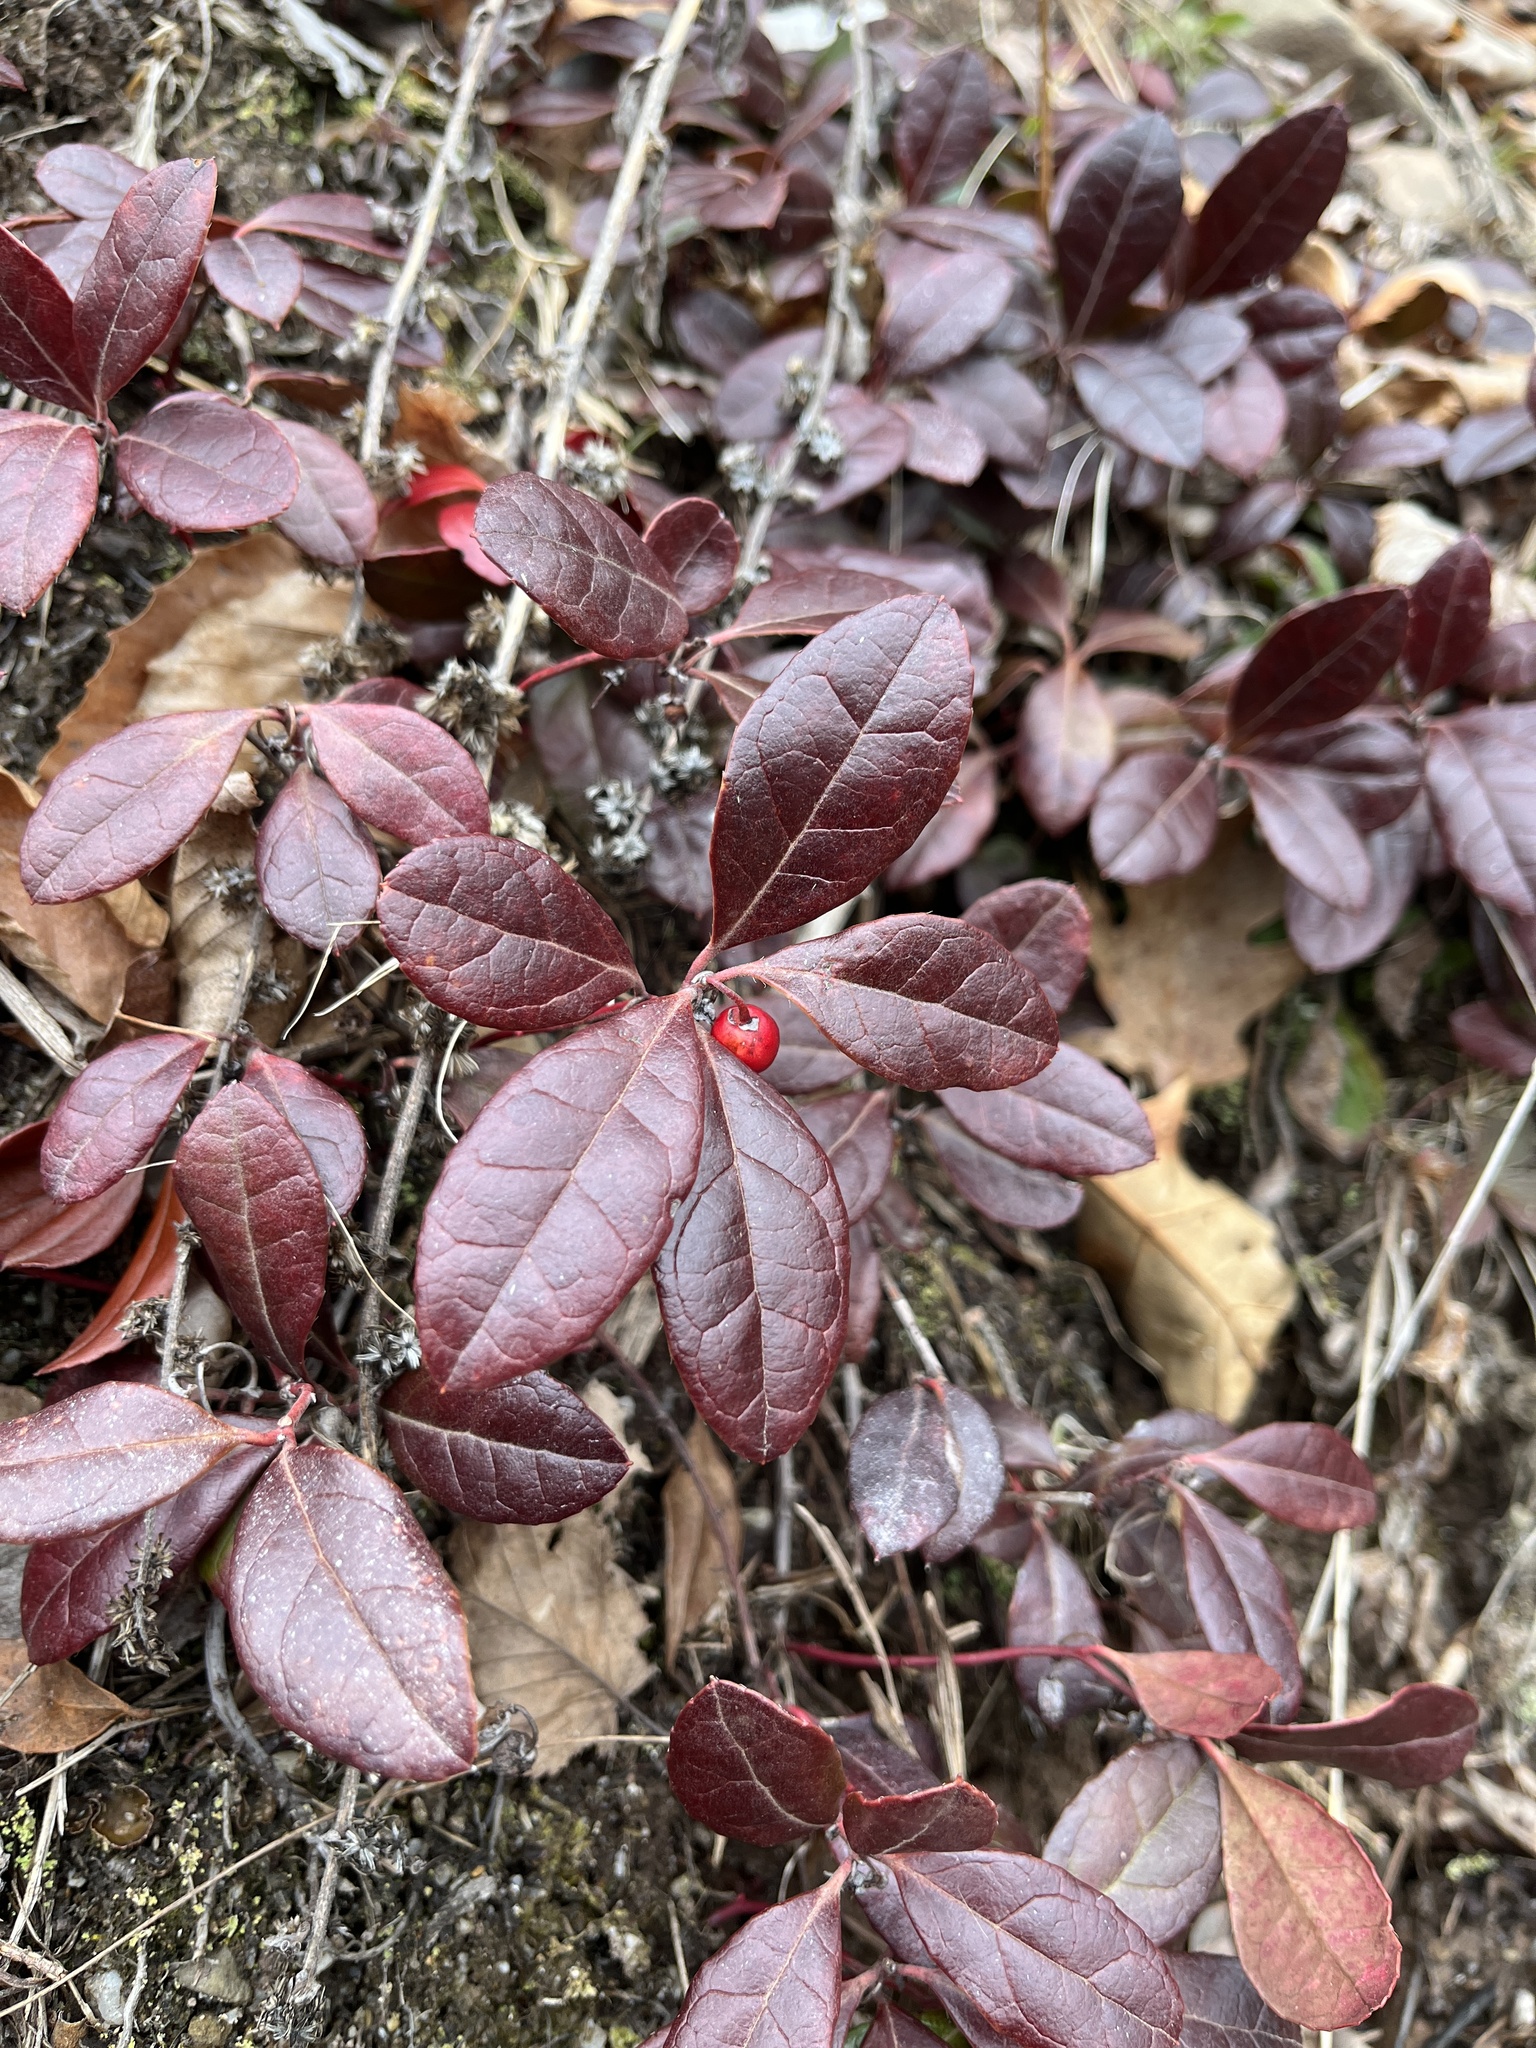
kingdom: Plantae
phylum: Tracheophyta
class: Magnoliopsida
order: Ericales
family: Ericaceae
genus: Gaultheria
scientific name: Gaultheria procumbens
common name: Checkerberry
